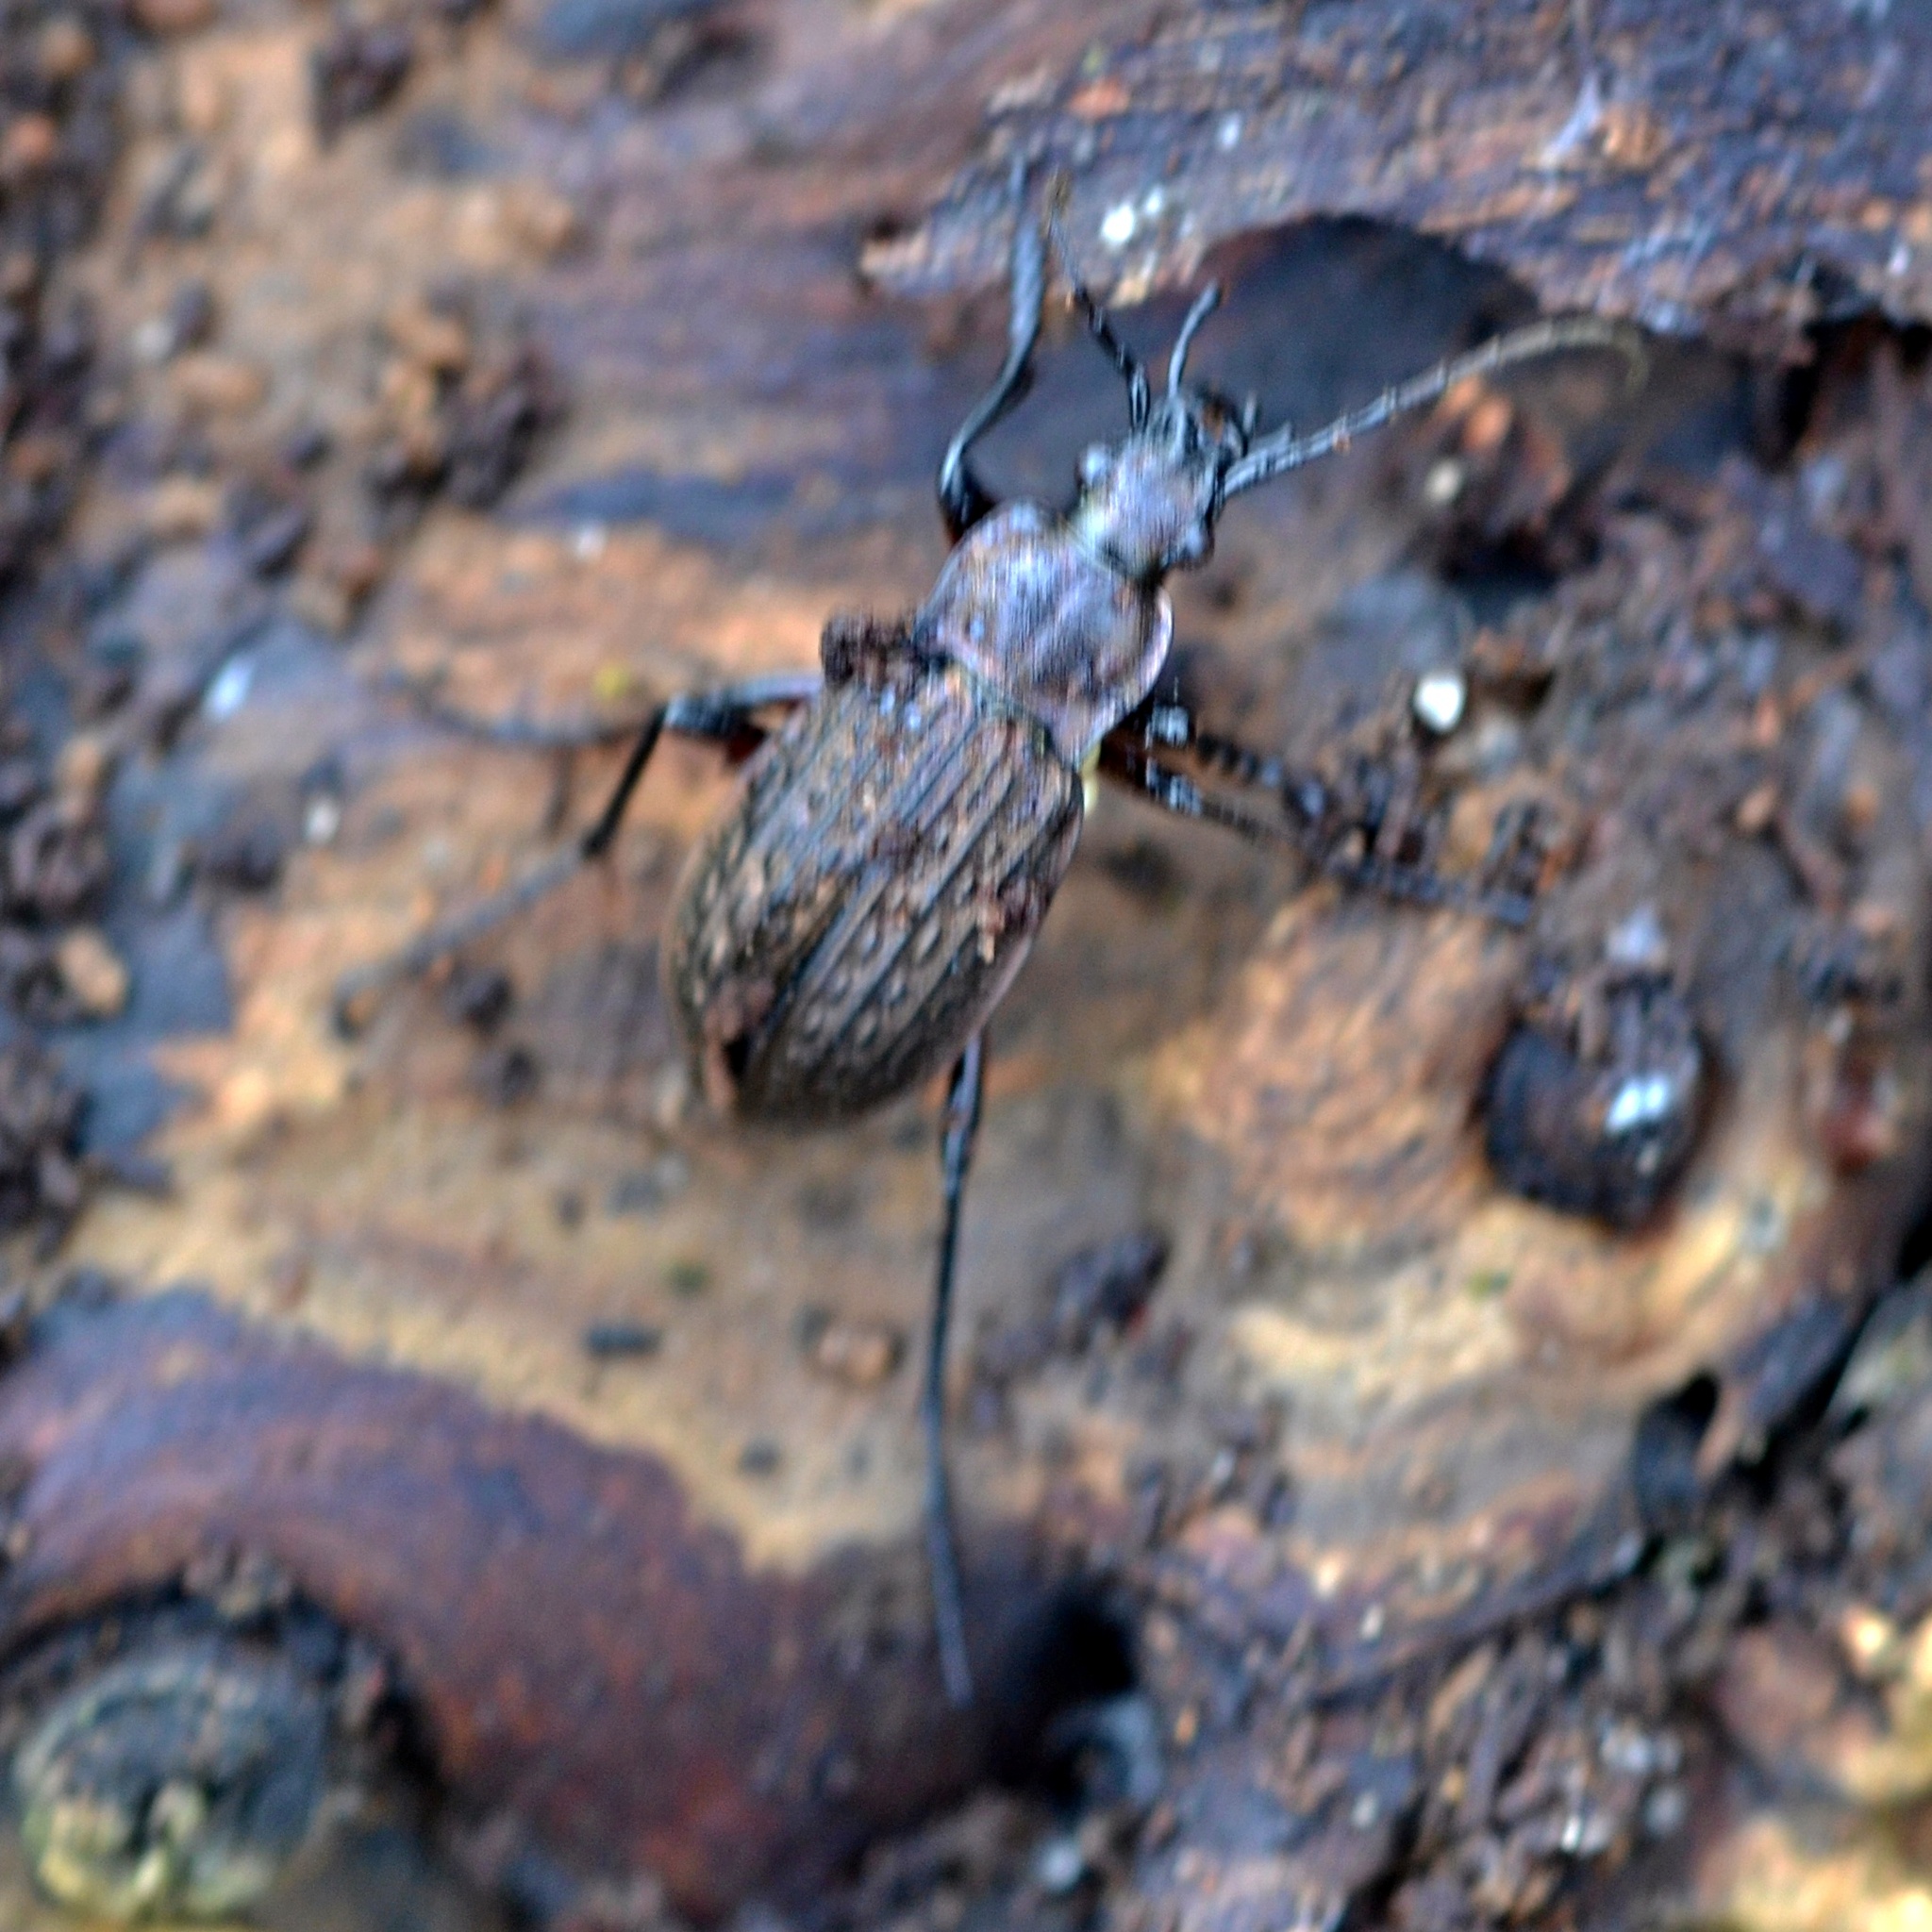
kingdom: Animalia
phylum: Arthropoda
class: Insecta
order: Coleoptera
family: Carabidae
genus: Carabus
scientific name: Carabus granulatus
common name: Granulate ground beetle
